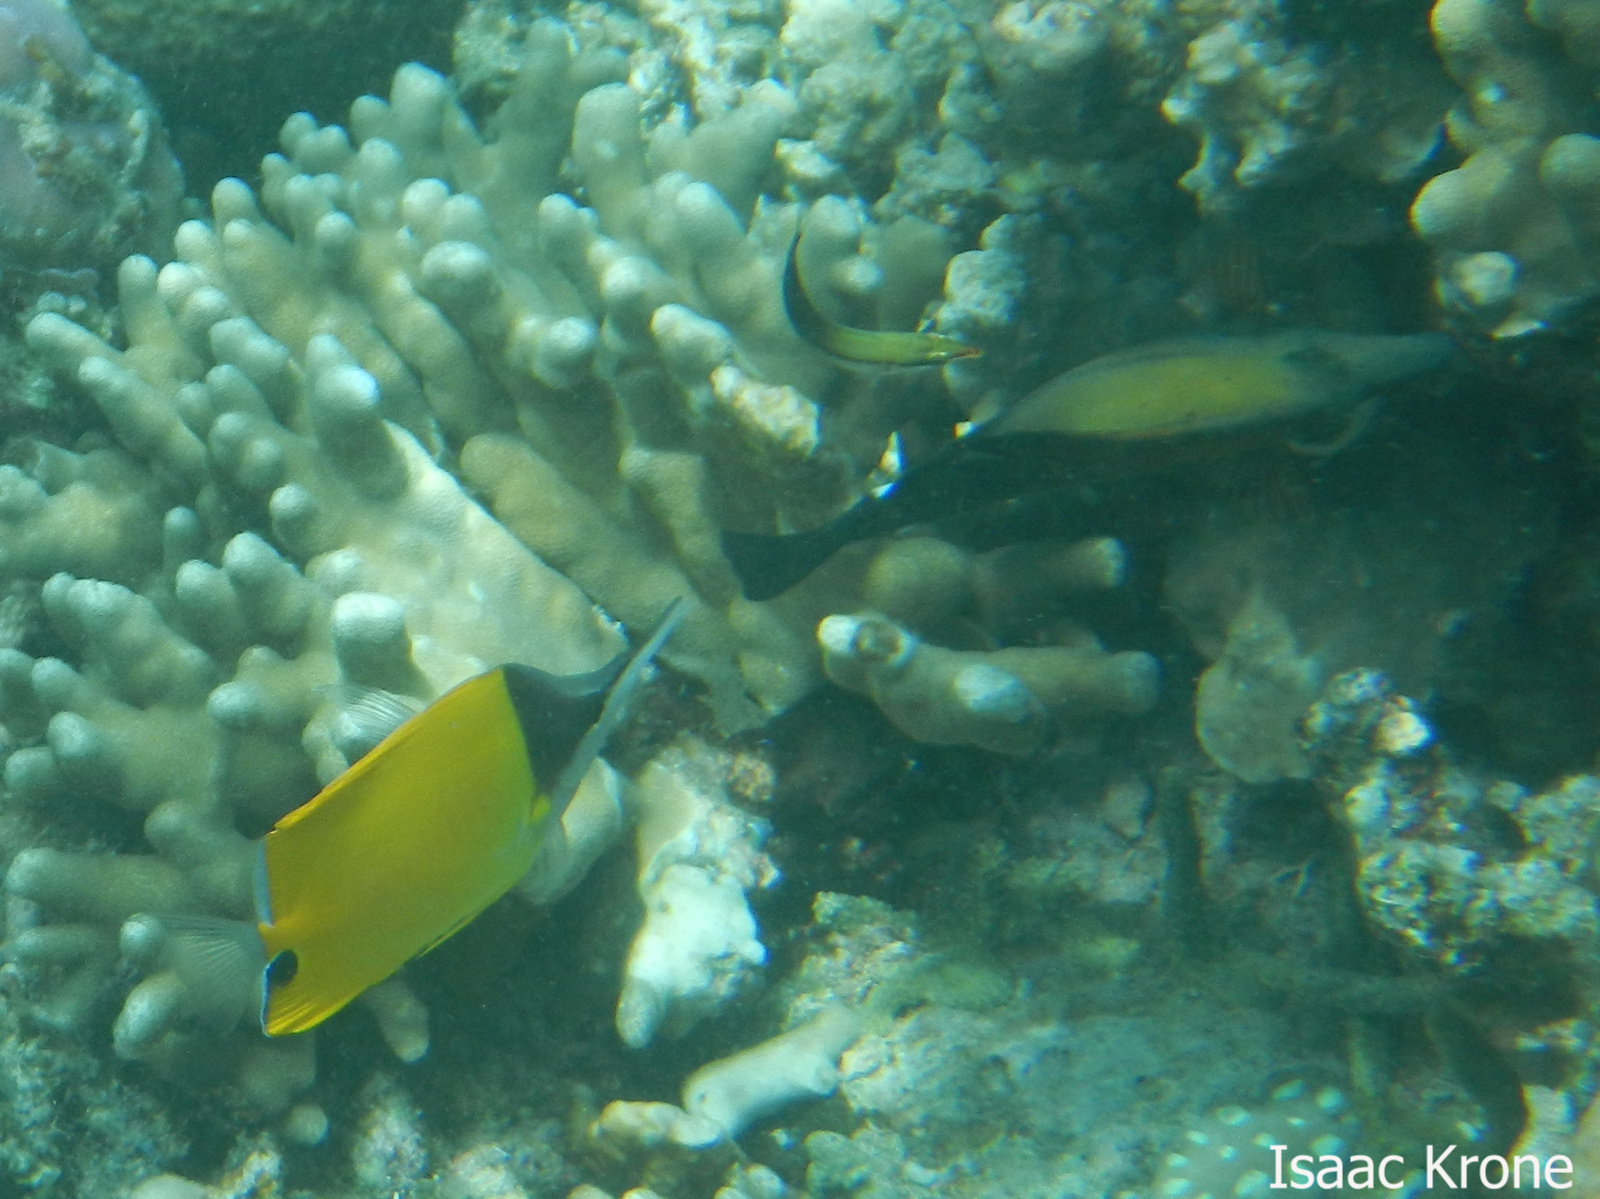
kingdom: Animalia
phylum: Chordata
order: Perciformes
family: Acanthuridae
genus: Zebrasoma
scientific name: Zebrasoma scopas
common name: Twotone tang
